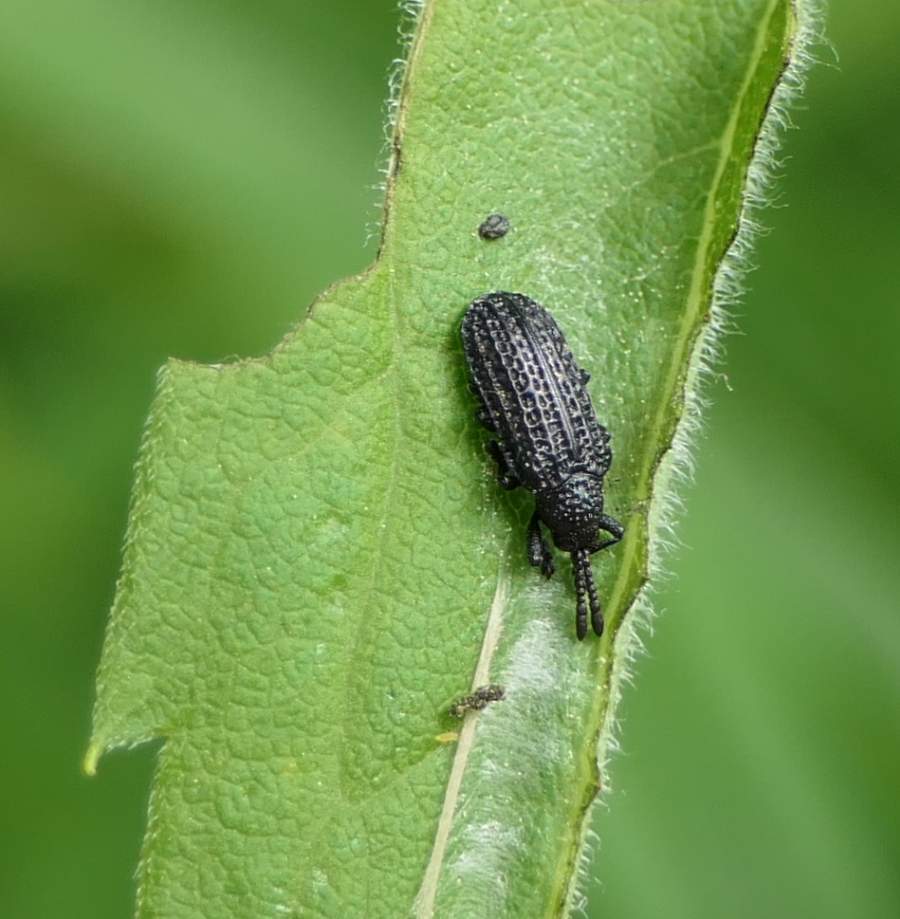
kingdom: Animalia
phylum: Arthropoda
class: Insecta
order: Coleoptera
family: Chrysomelidae
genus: Microrhopala
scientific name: Microrhopala excavata
